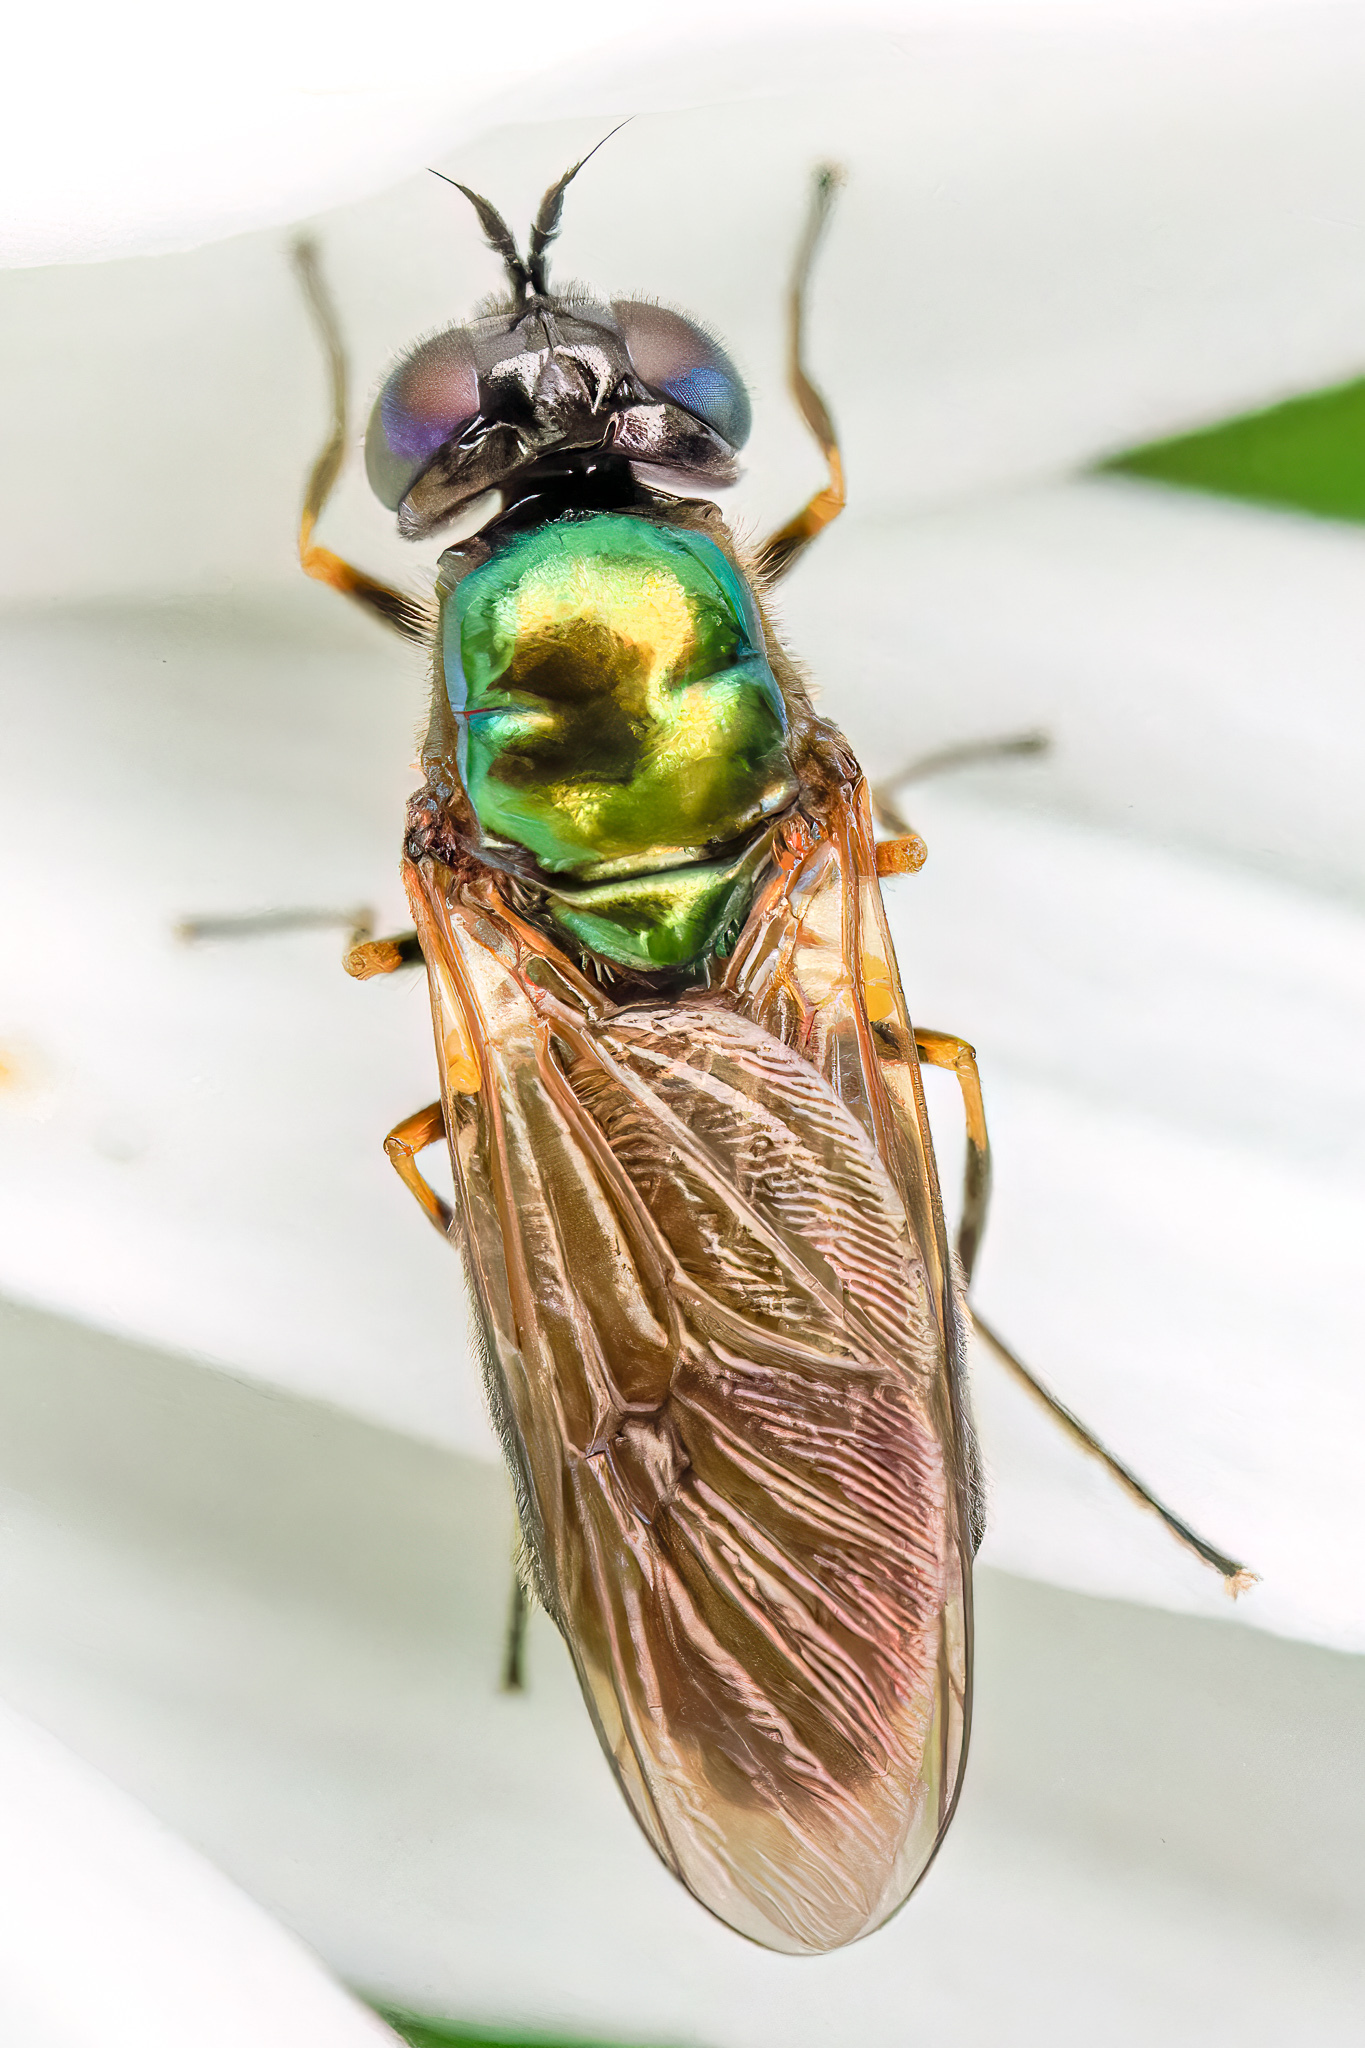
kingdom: Animalia
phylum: Arthropoda
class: Insecta
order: Diptera
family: Stratiomyidae
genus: Chloromyia
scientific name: Chloromyia formosa
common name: Soldier fly
